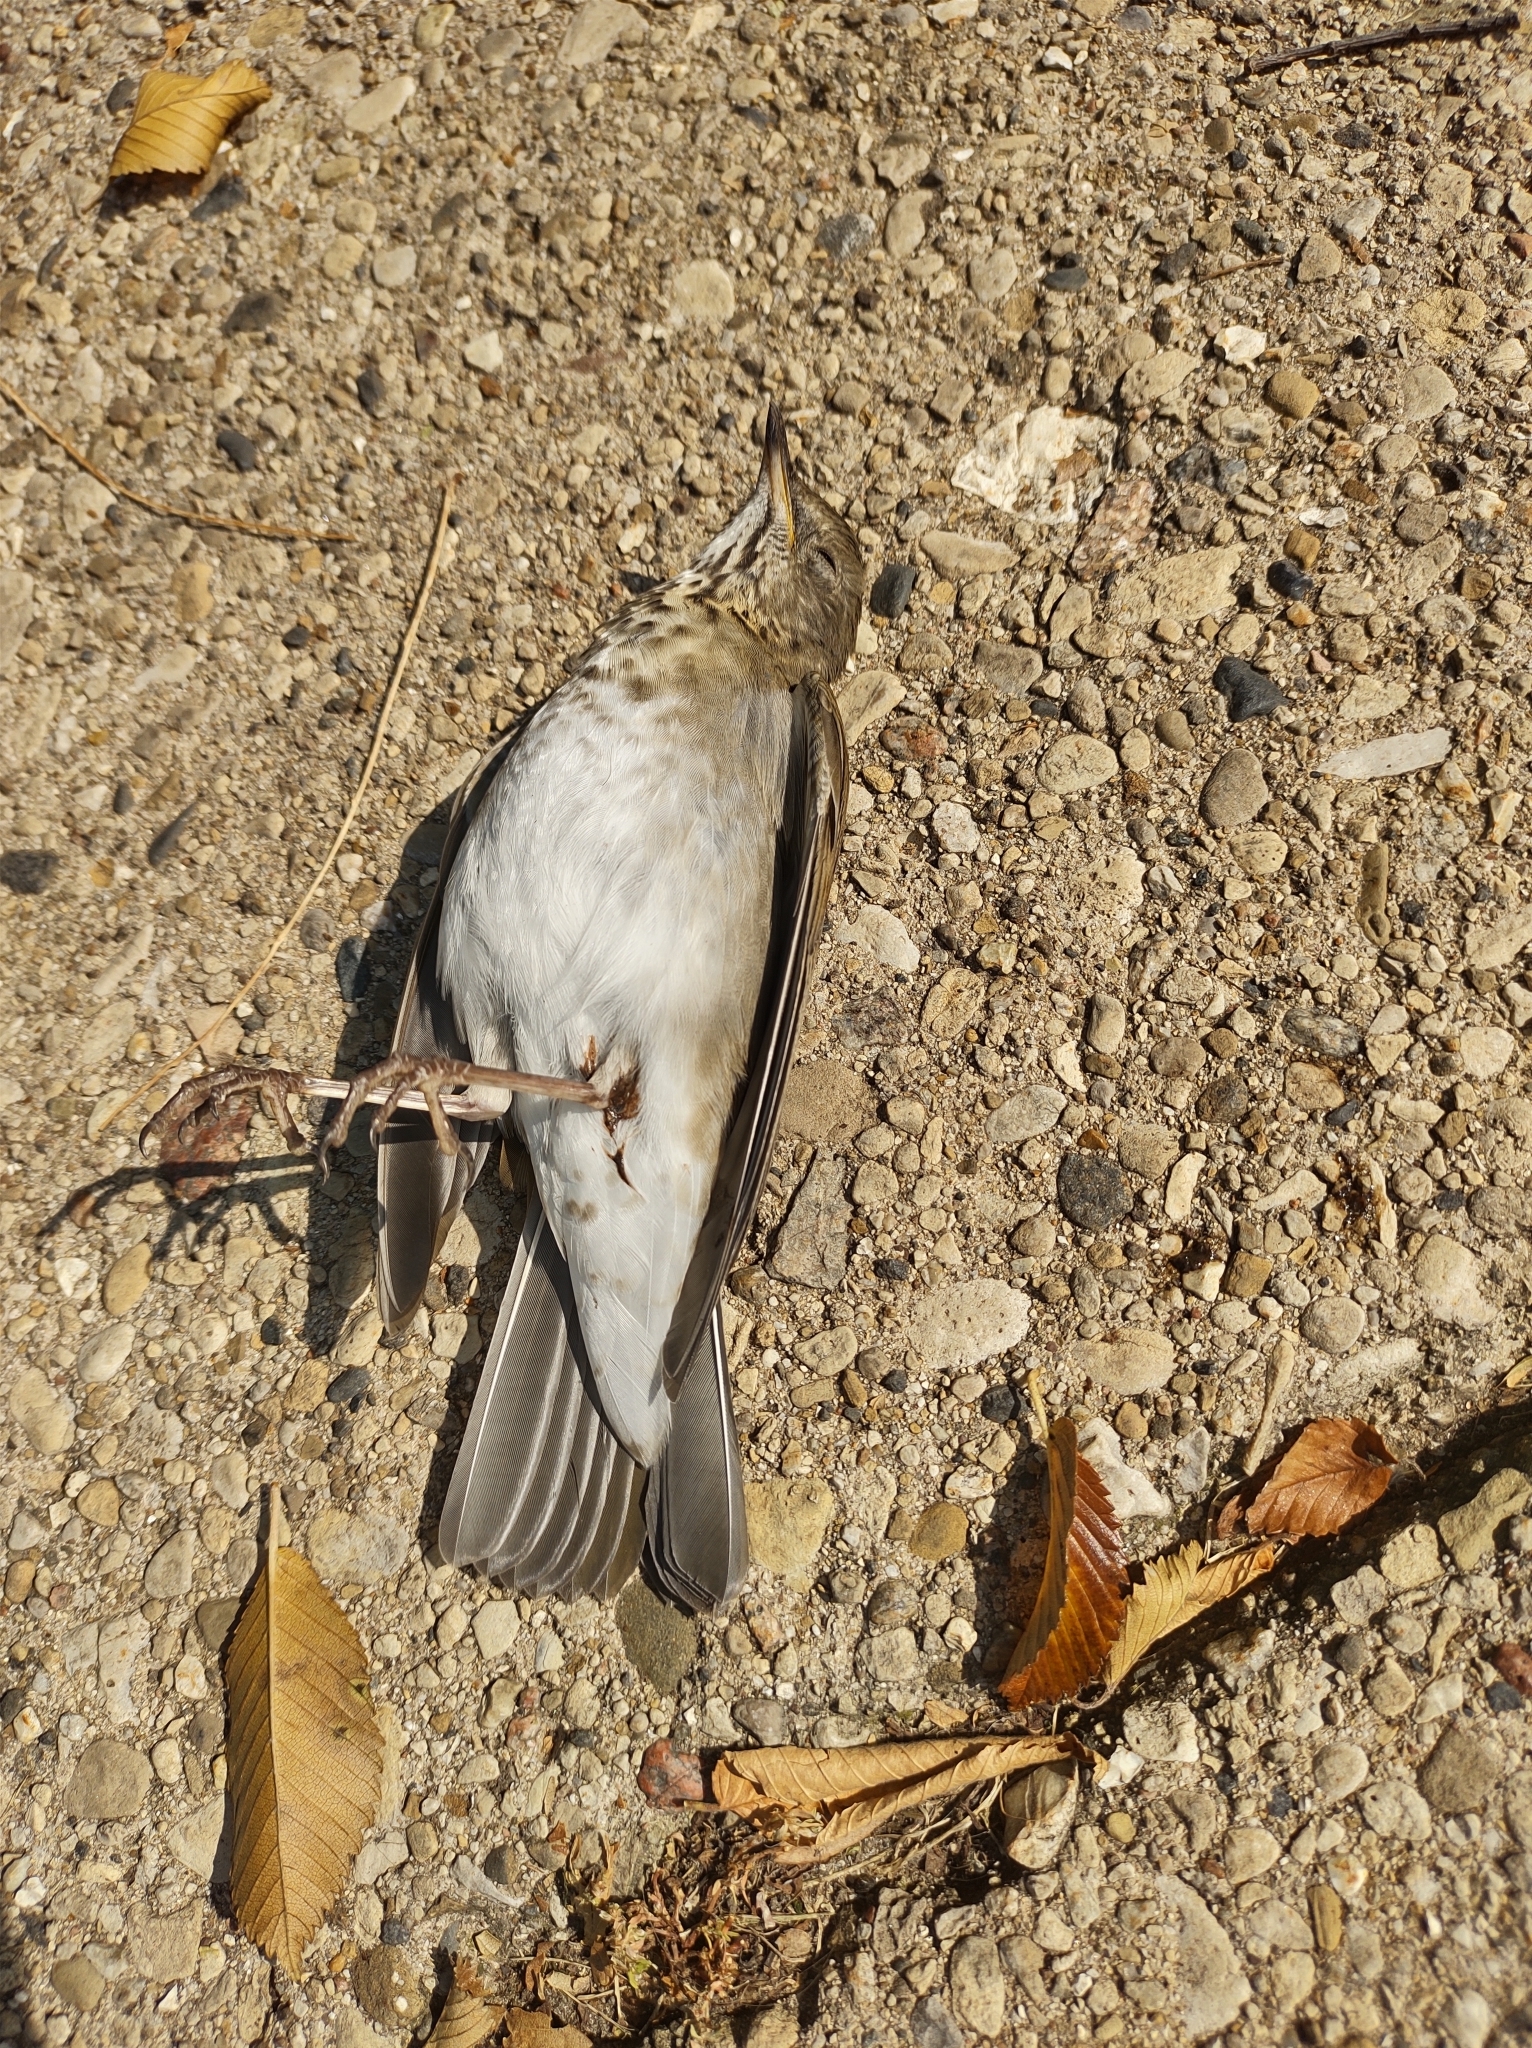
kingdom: Animalia
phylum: Chordata
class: Aves
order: Passeriformes
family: Turdidae
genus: Catharus
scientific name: Catharus guttatus
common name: Hermit thrush
